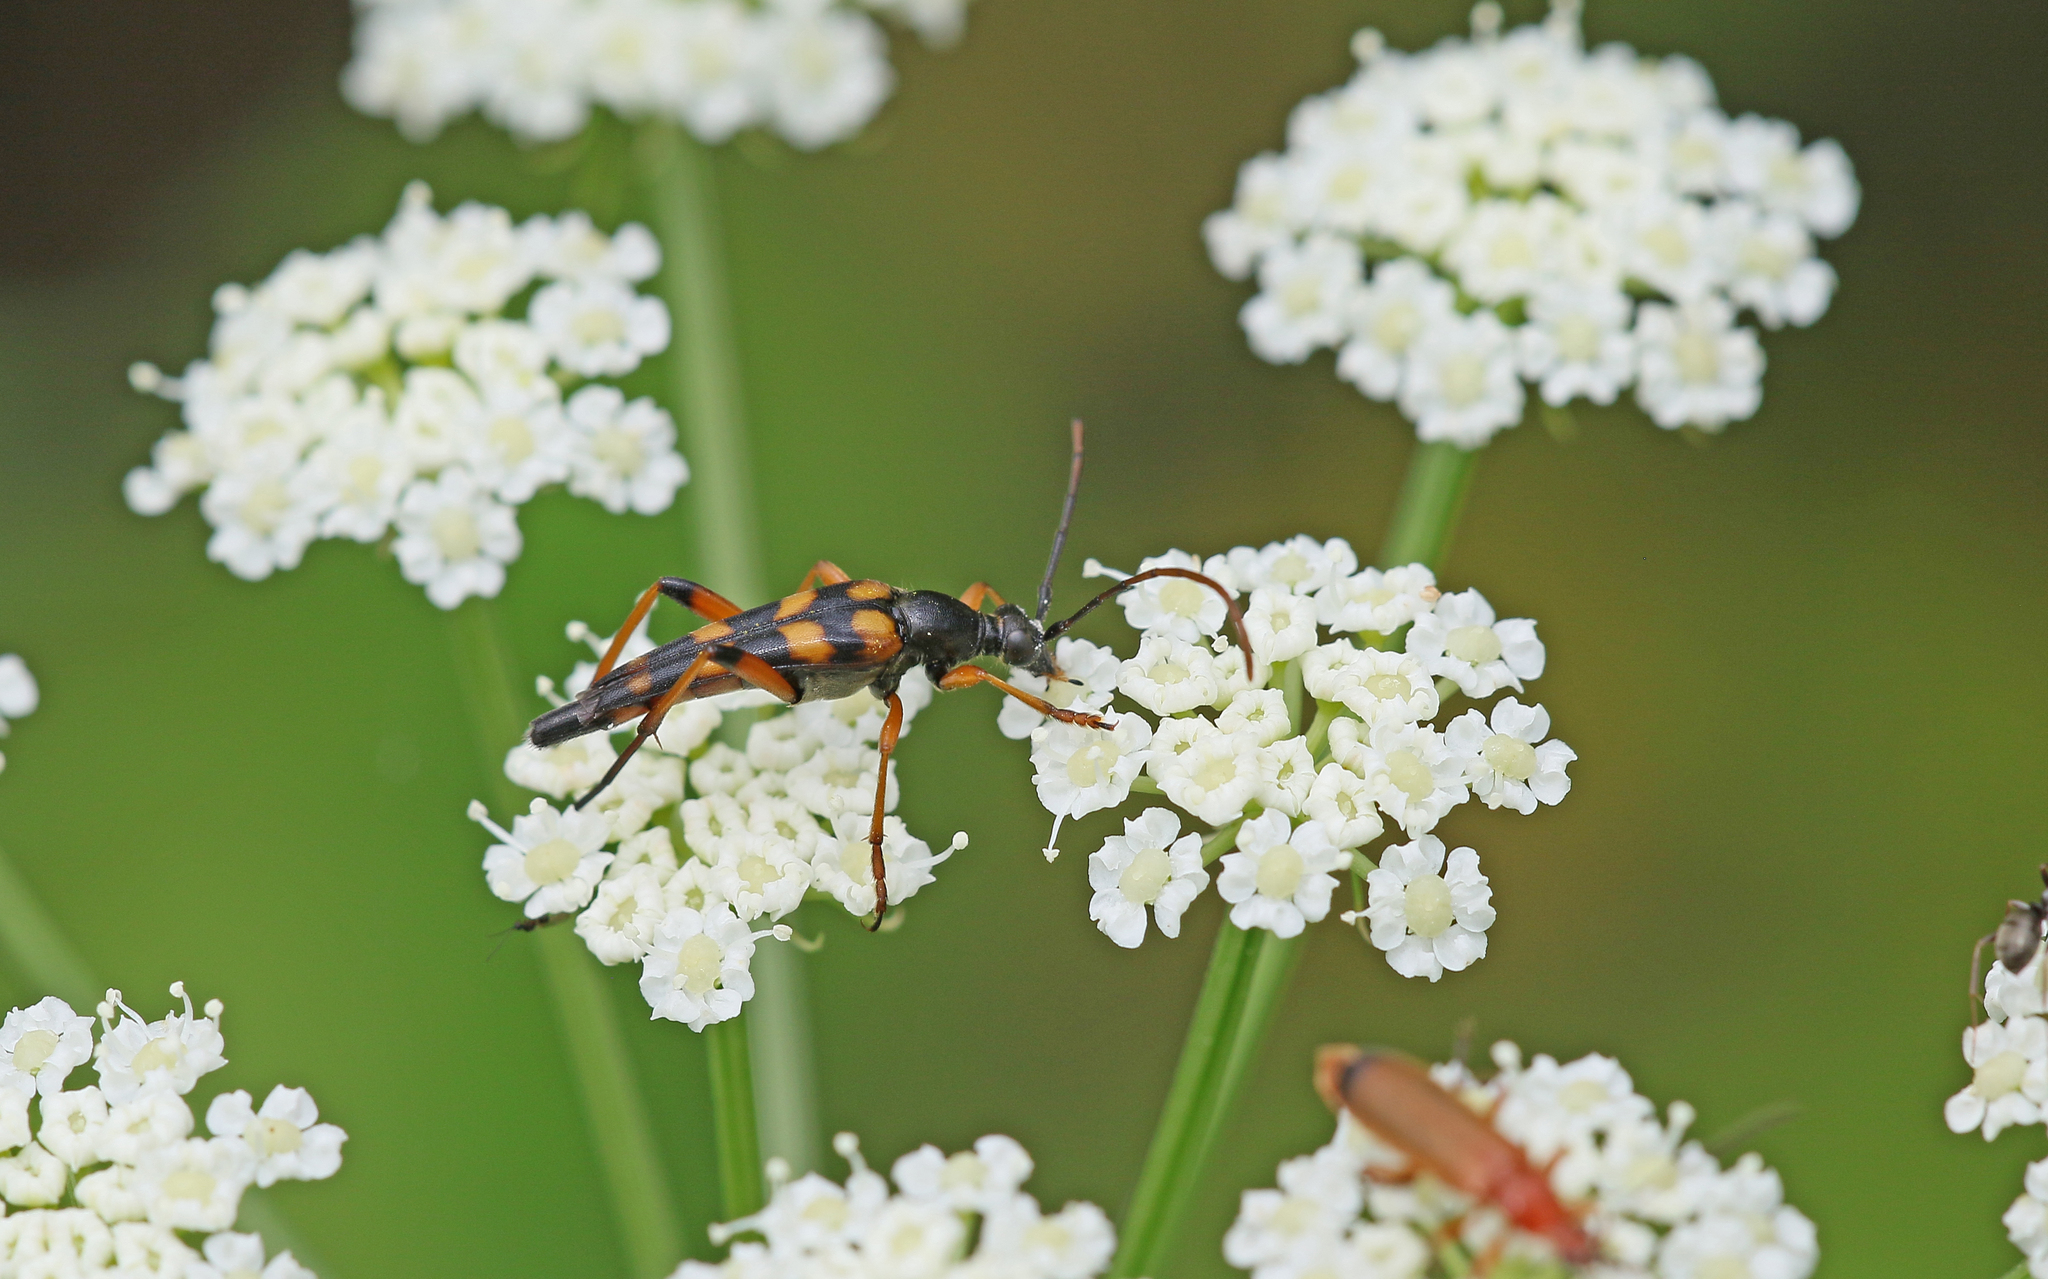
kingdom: Animalia
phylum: Arthropoda
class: Insecta
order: Coleoptera
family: Cerambycidae
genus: Strangalia
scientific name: Strangalia attenuata
